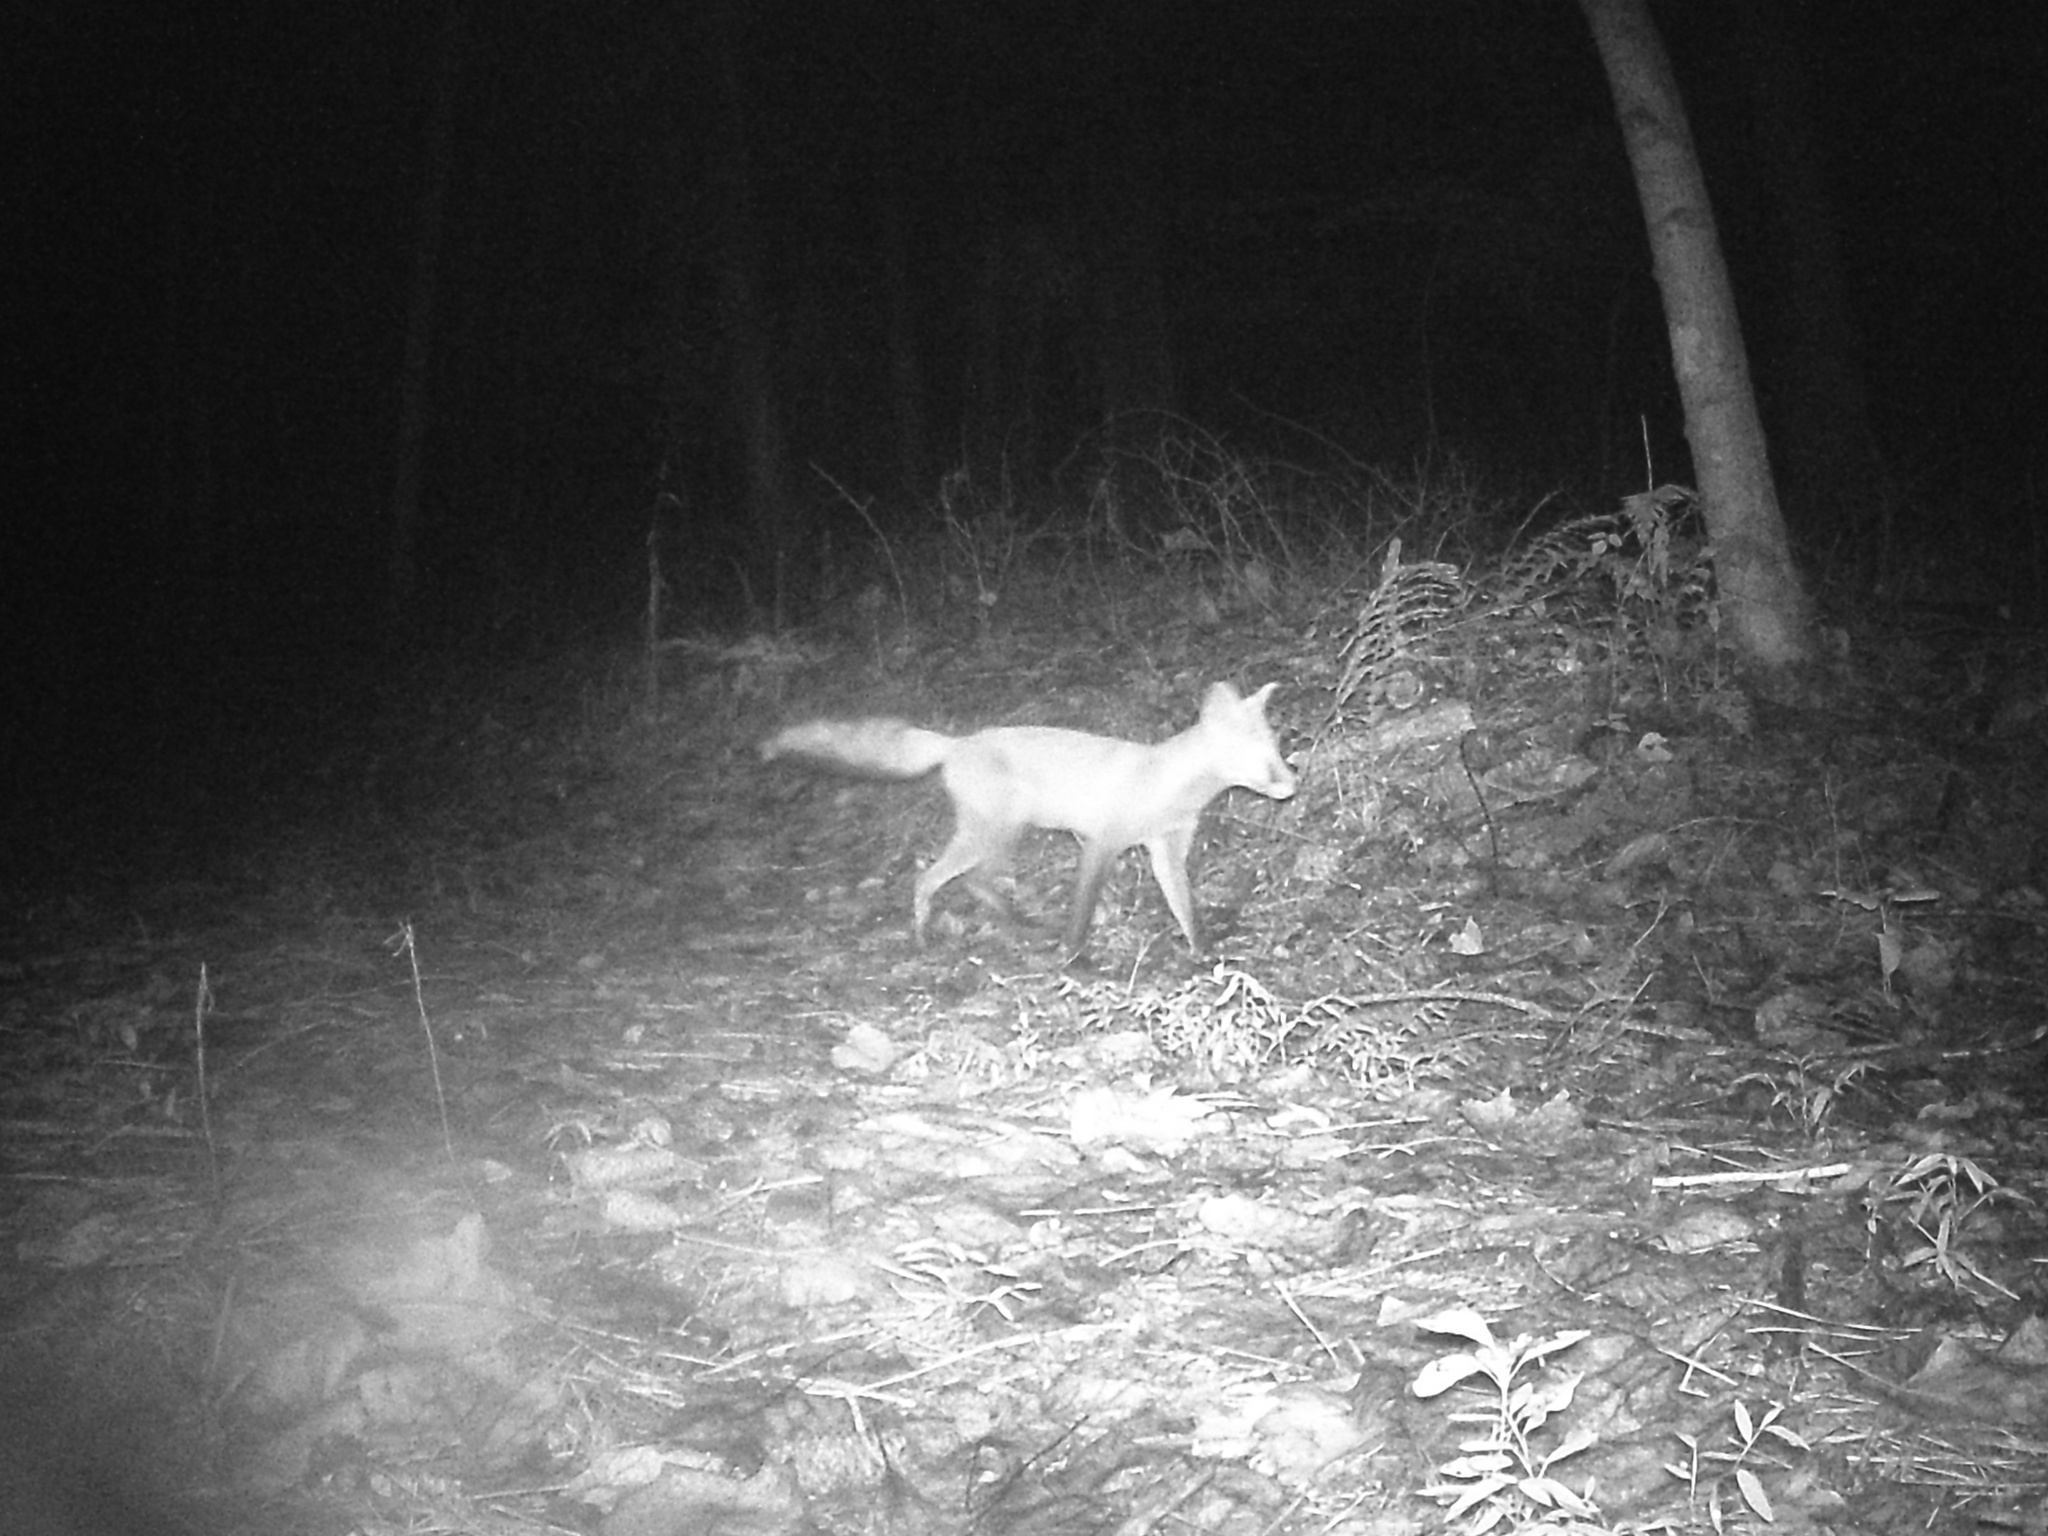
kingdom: Animalia
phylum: Chordata
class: Mammalia
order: Carnivora
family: Canidae
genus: Vulpes
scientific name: Vulpes vulpes
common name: Red fox
